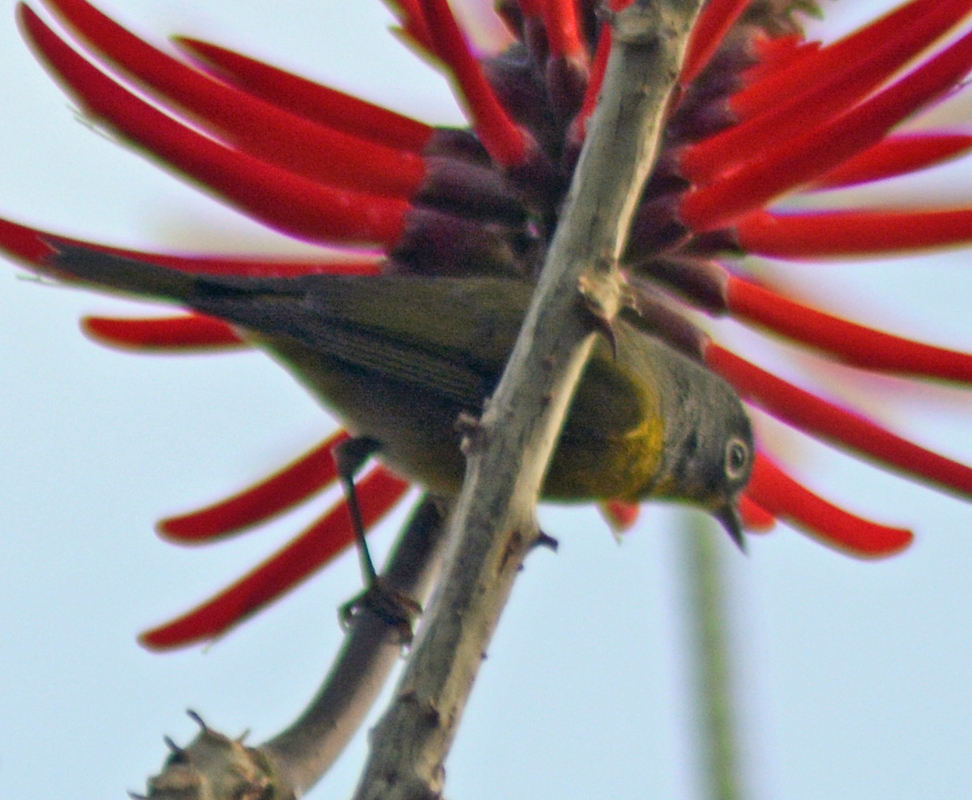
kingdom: Animalia
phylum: Chordata
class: Aves
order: Passeriformes
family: Parulidae
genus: Leiothlypis
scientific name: Leiothlypis ruficapilla
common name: Nashville warbler
